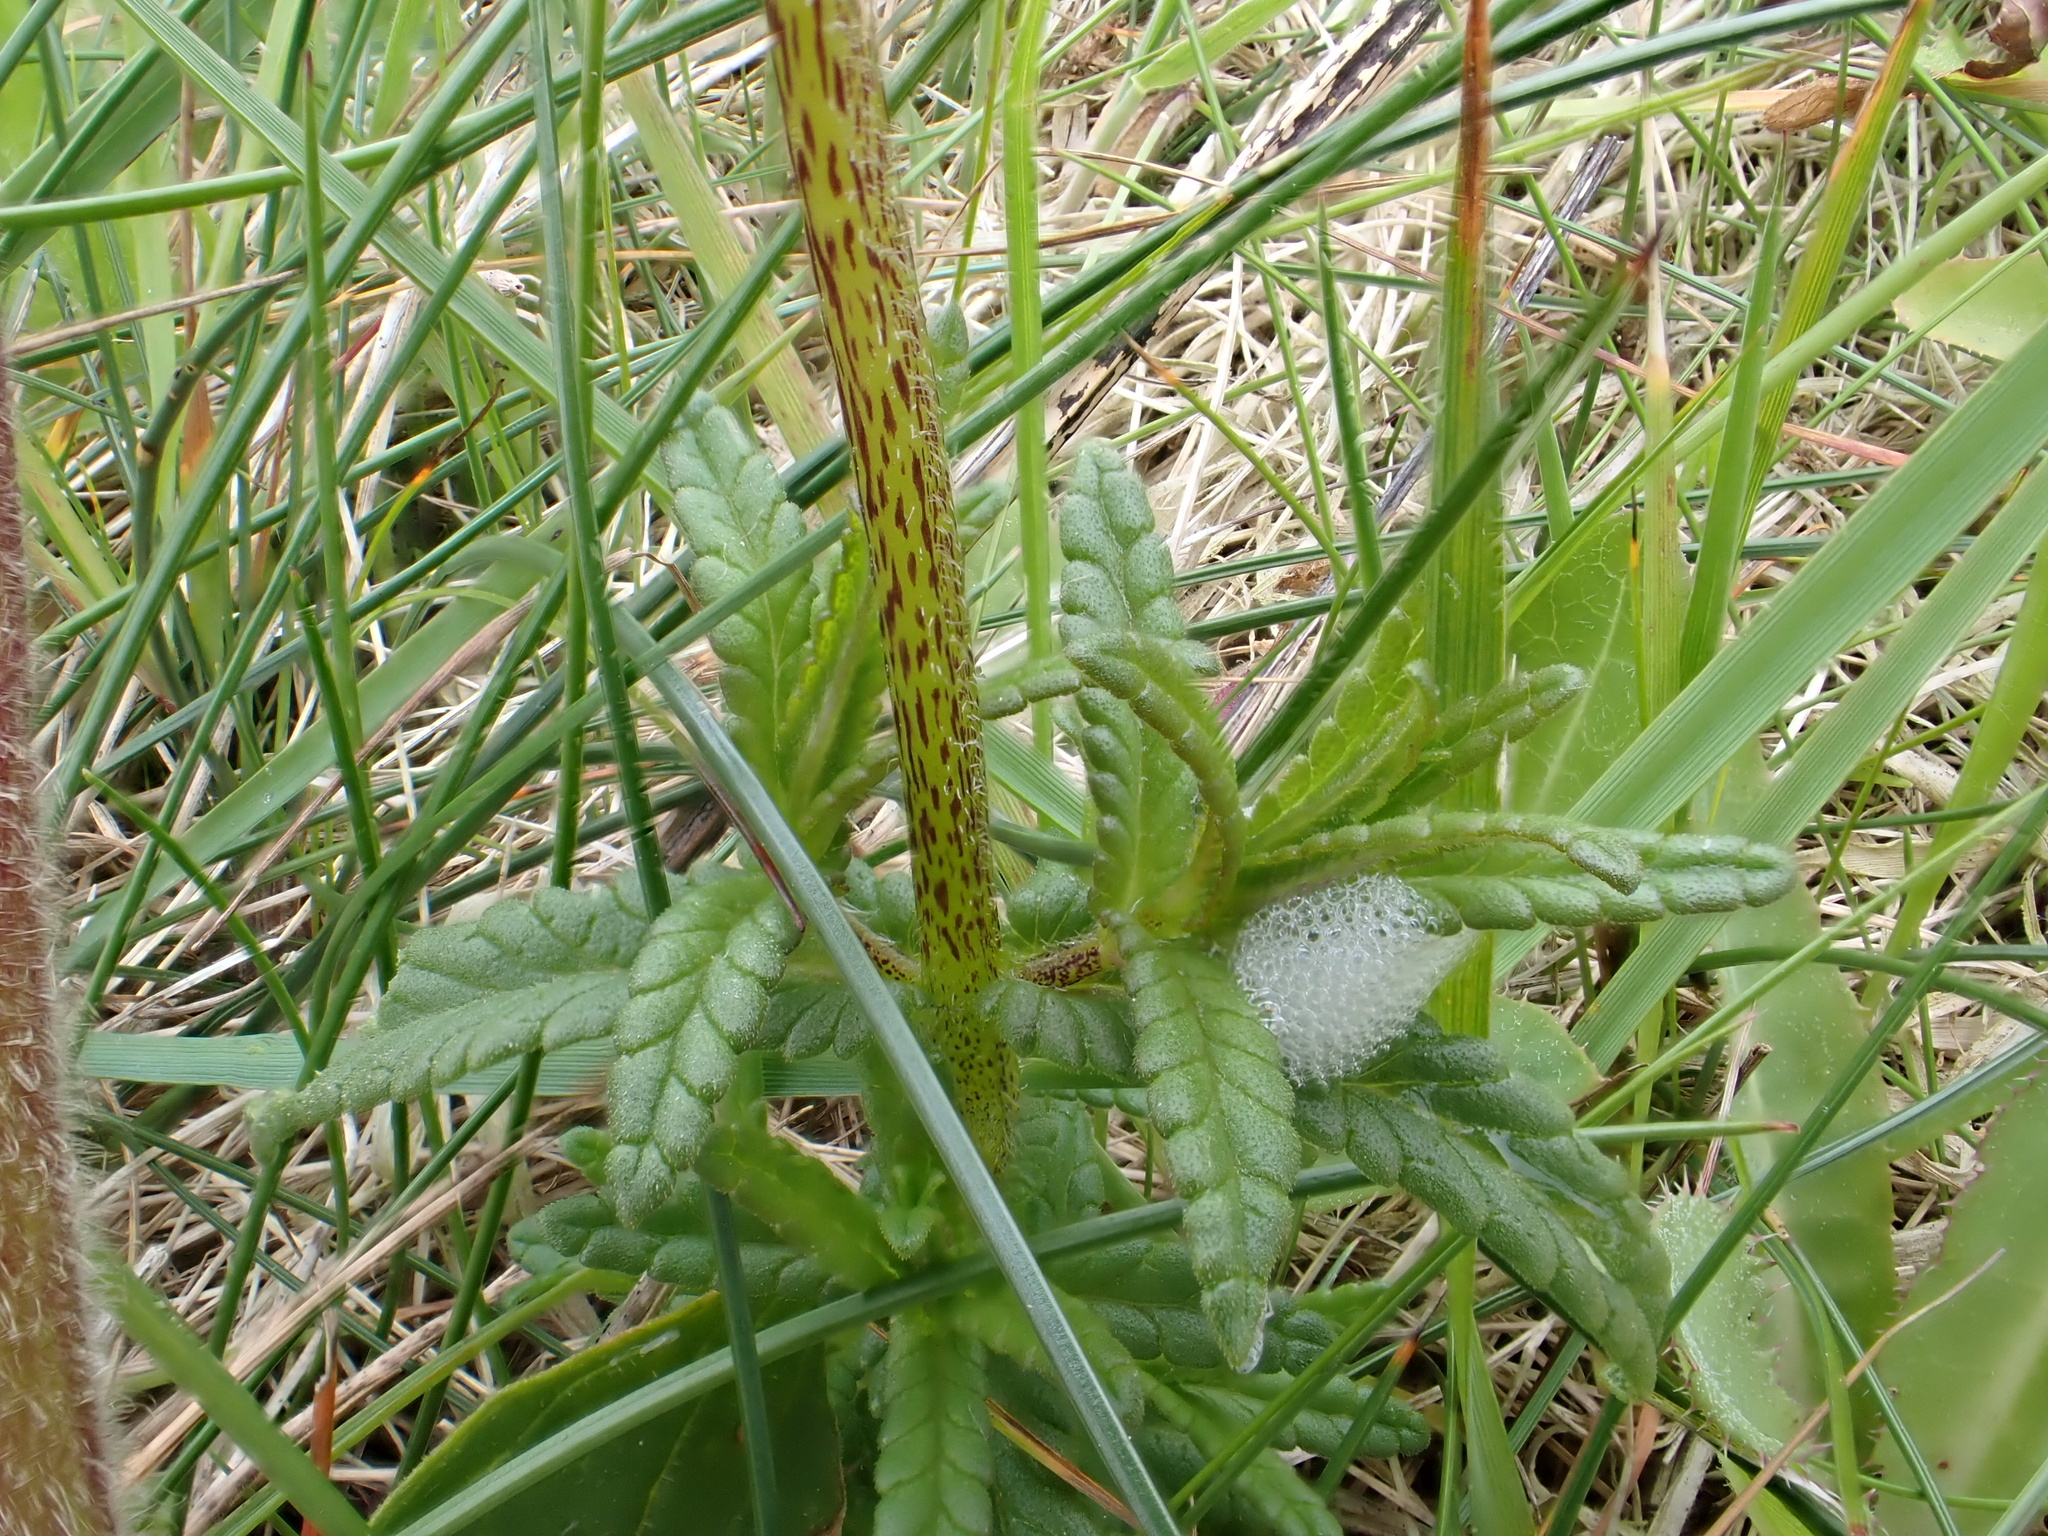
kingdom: Plantae
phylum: Tracheophyta
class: Magnoliopsida
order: Lamiales
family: Orobanchaceae
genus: Rhinanthus
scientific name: Rhinanthus minor
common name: Yellow-rattle
